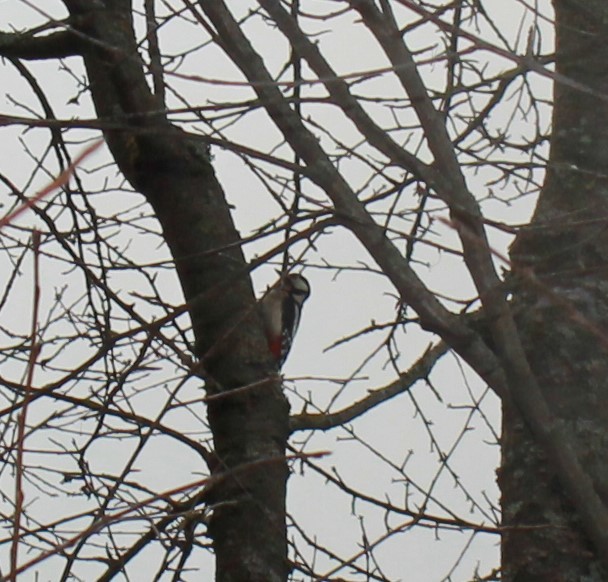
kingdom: Animalia
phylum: Chordata
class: Aves
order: Piciformes
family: Picidae
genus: Dendrocopos
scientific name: Dendrocopos major
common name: Great spotted woodpecker
